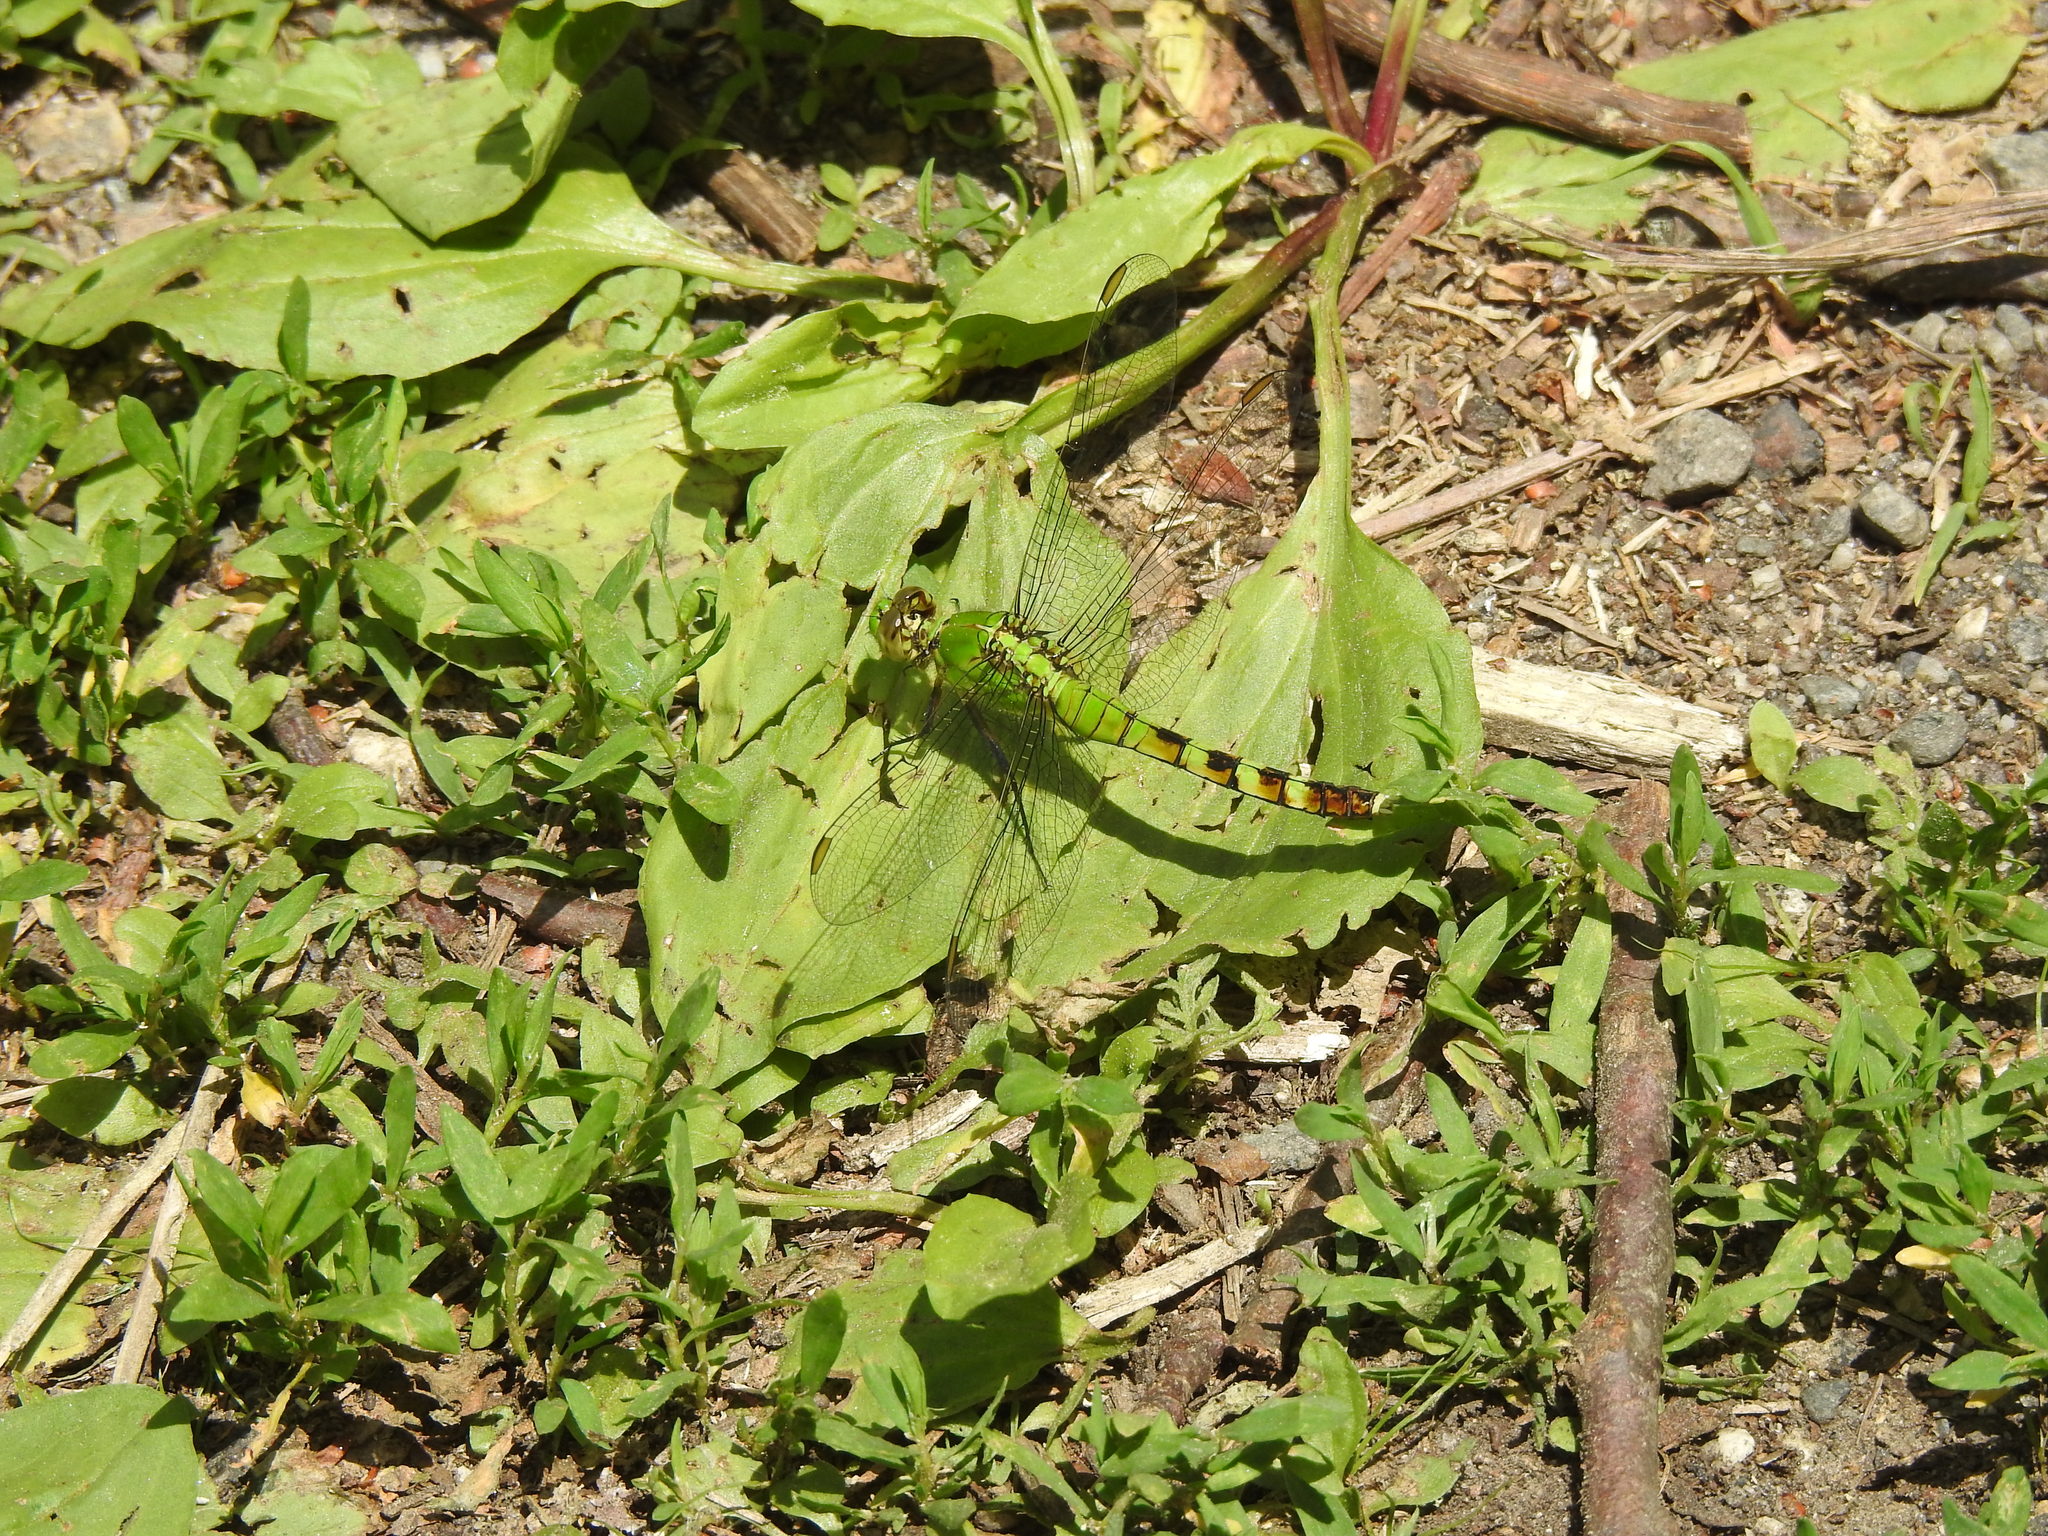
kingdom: Animalia
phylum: Arthropoda
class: Insecta
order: Odonata
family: Libellulidae
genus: Erythemis
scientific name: Erythemis simplicicollis
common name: Eastern pondhawk
